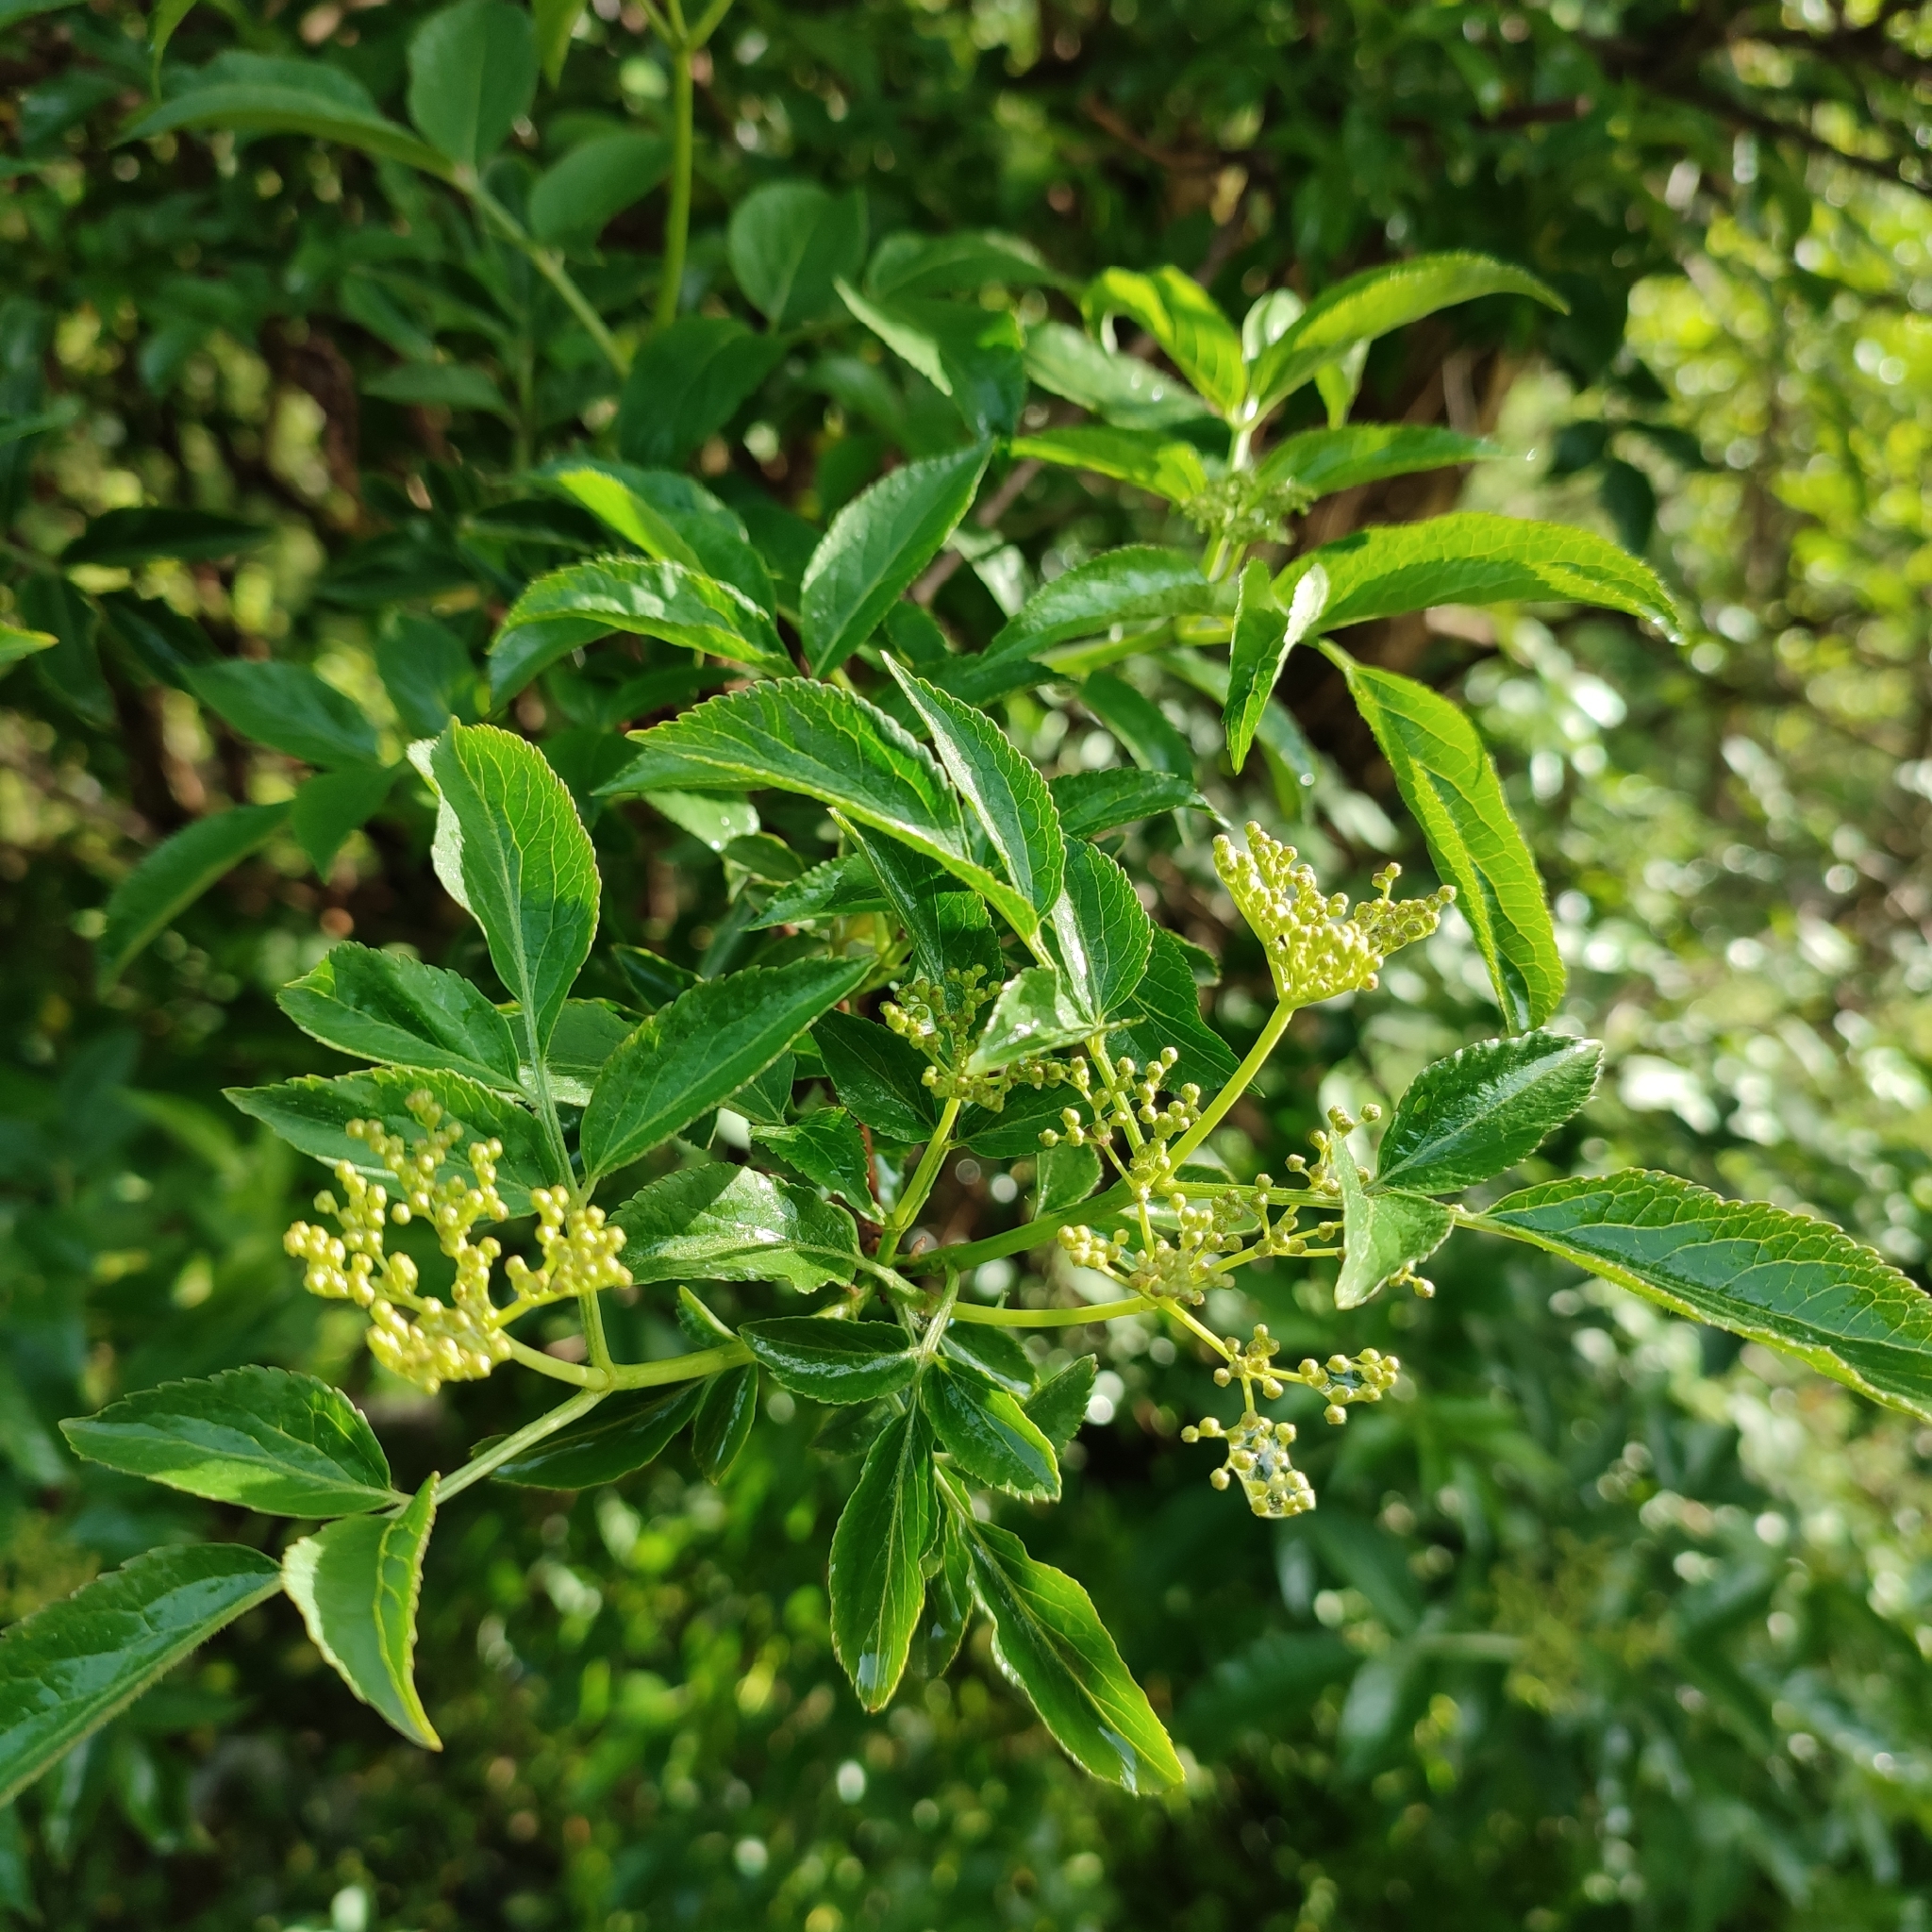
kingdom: Plantae
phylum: Tracheophyta
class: Magnoliopsida
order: Dipsacales
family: Viburnaceae
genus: Sambucus
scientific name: Sambucus nigra
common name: Elder
